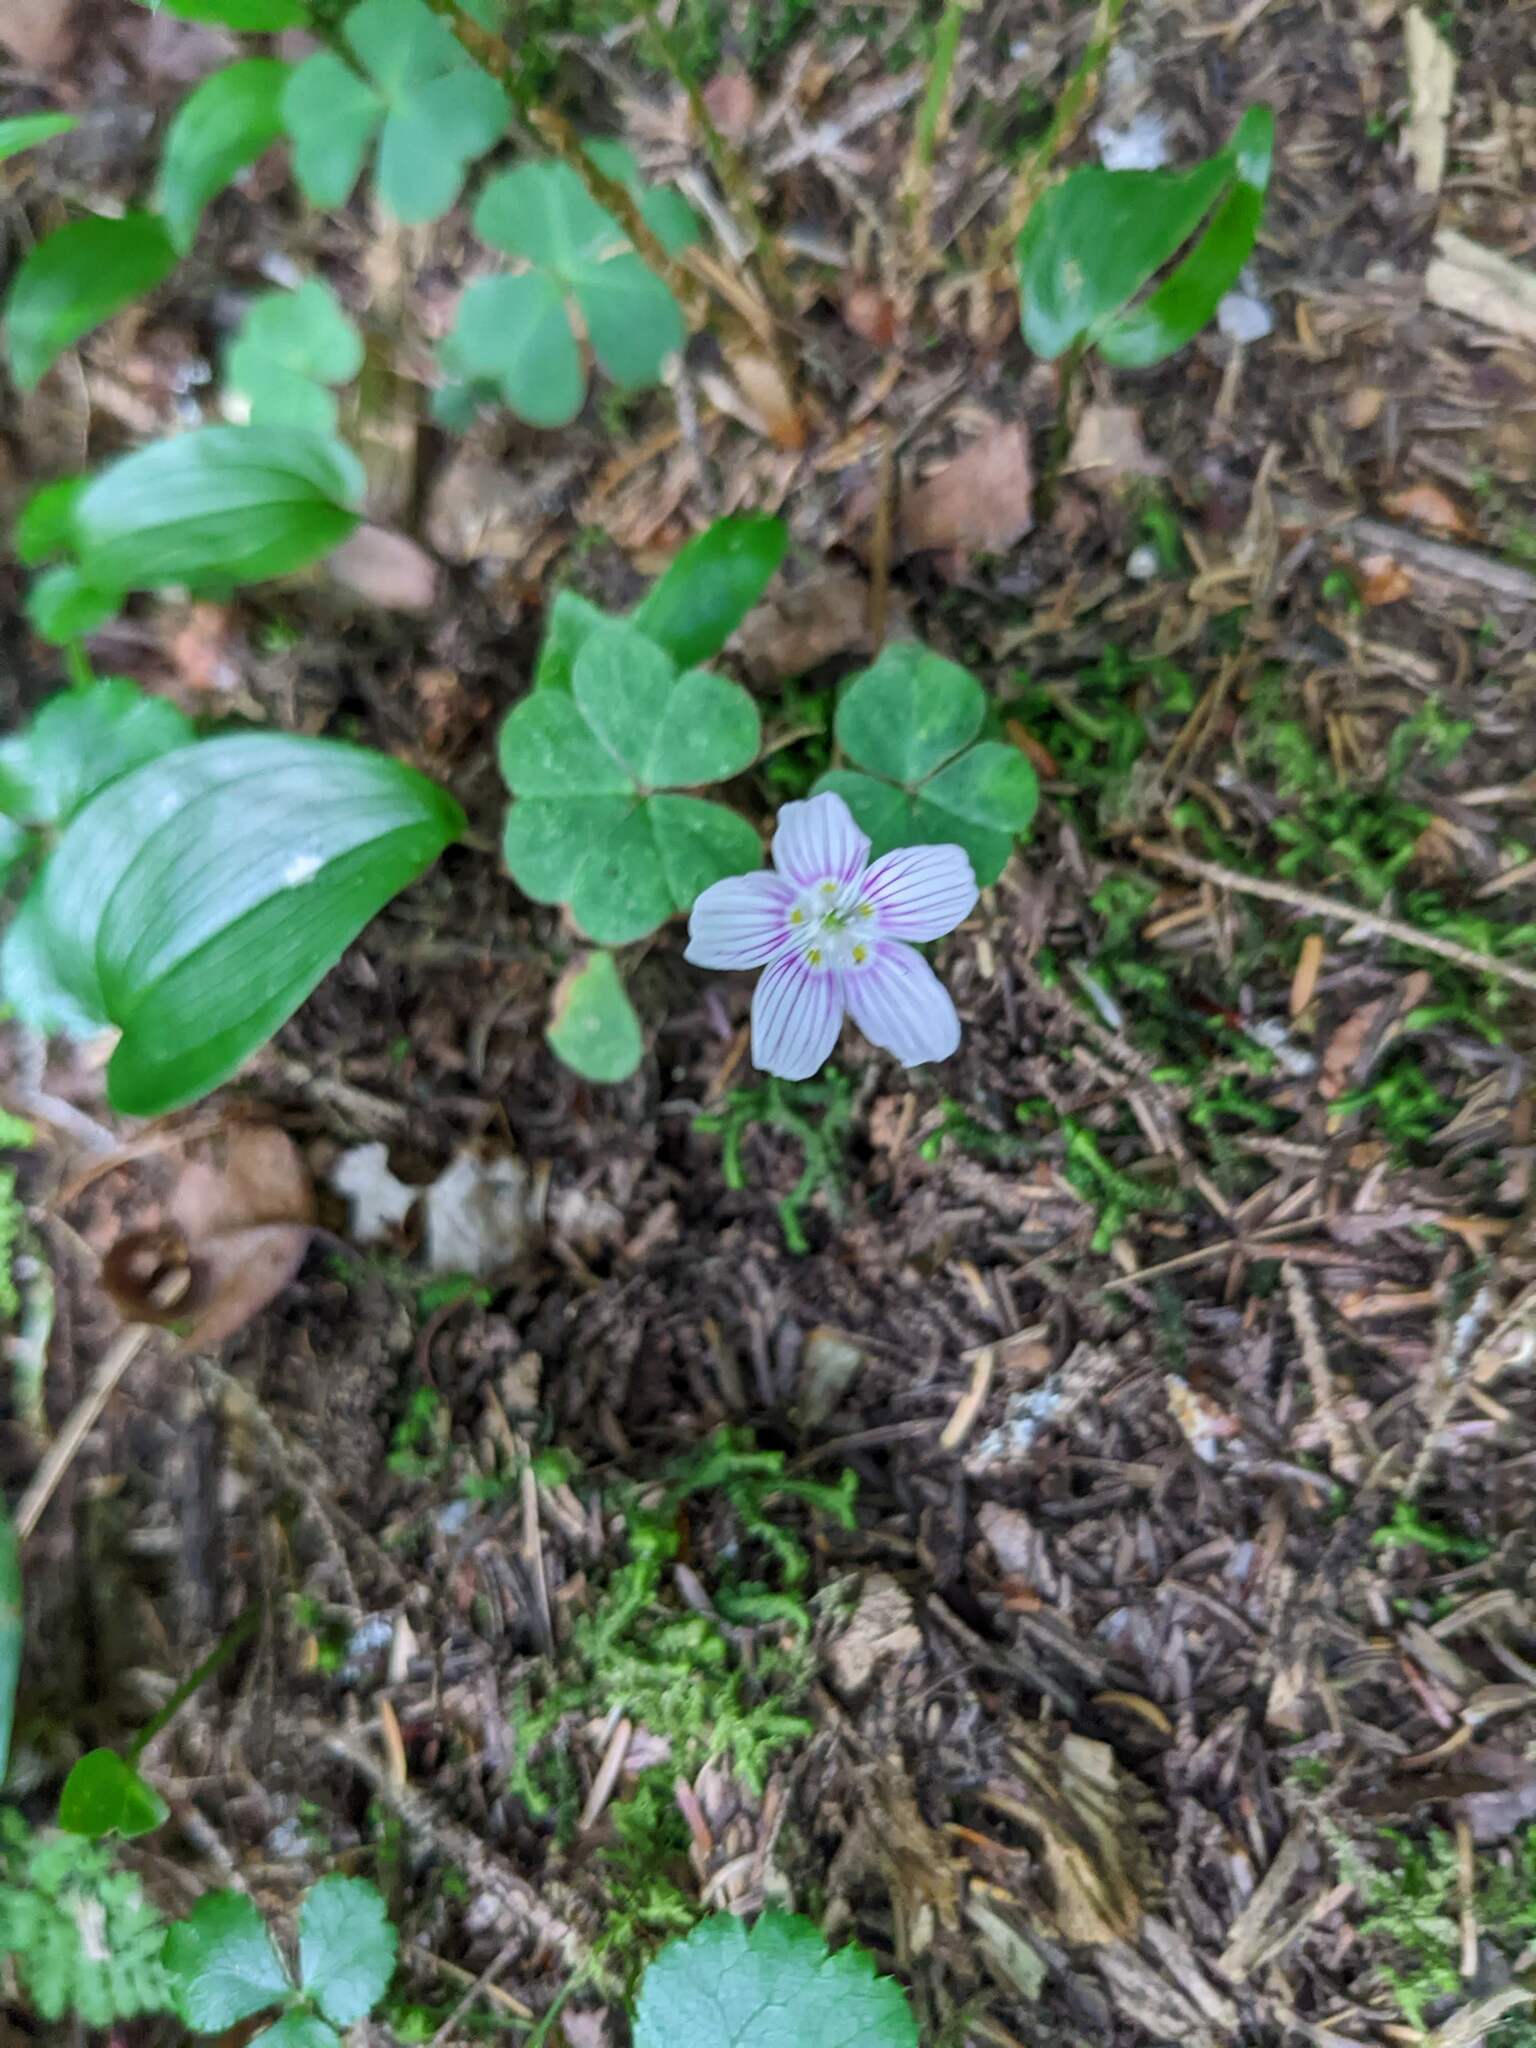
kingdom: Plantae
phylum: Tracheophyta
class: Magnoliopsida
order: Oxalidales
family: Oxalidaceae
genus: Oxalis
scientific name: Oxalis montana
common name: American wood-sorrel
